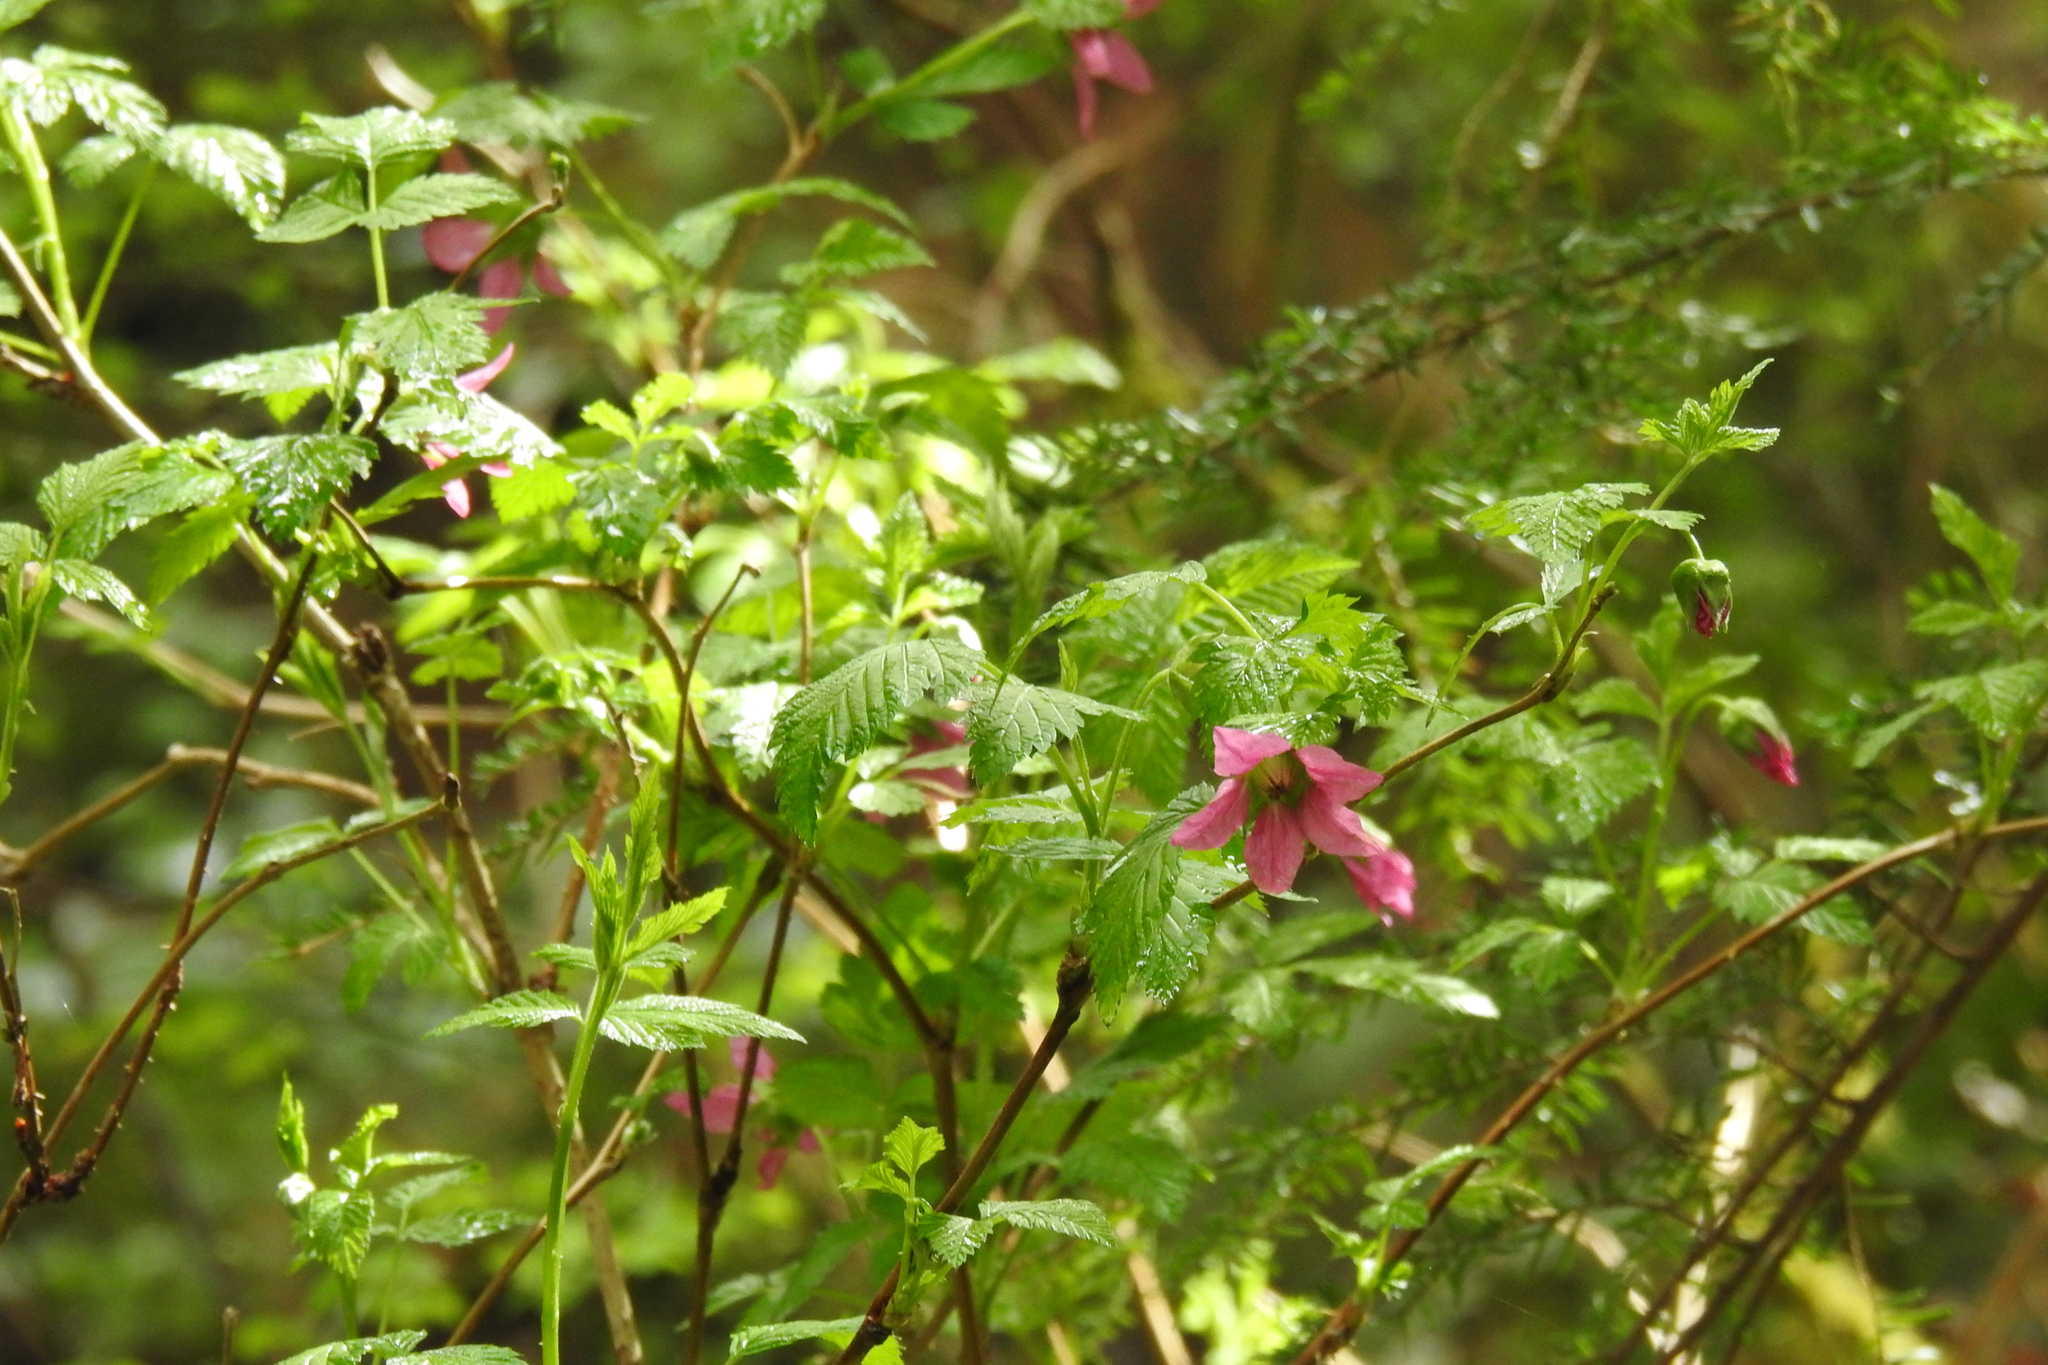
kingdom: Plantae
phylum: Tracheophyta
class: Magnoliopsida
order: Rosales
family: Rosaceae
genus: Rubus
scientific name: Rubus spectabilis
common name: Salmonberry
